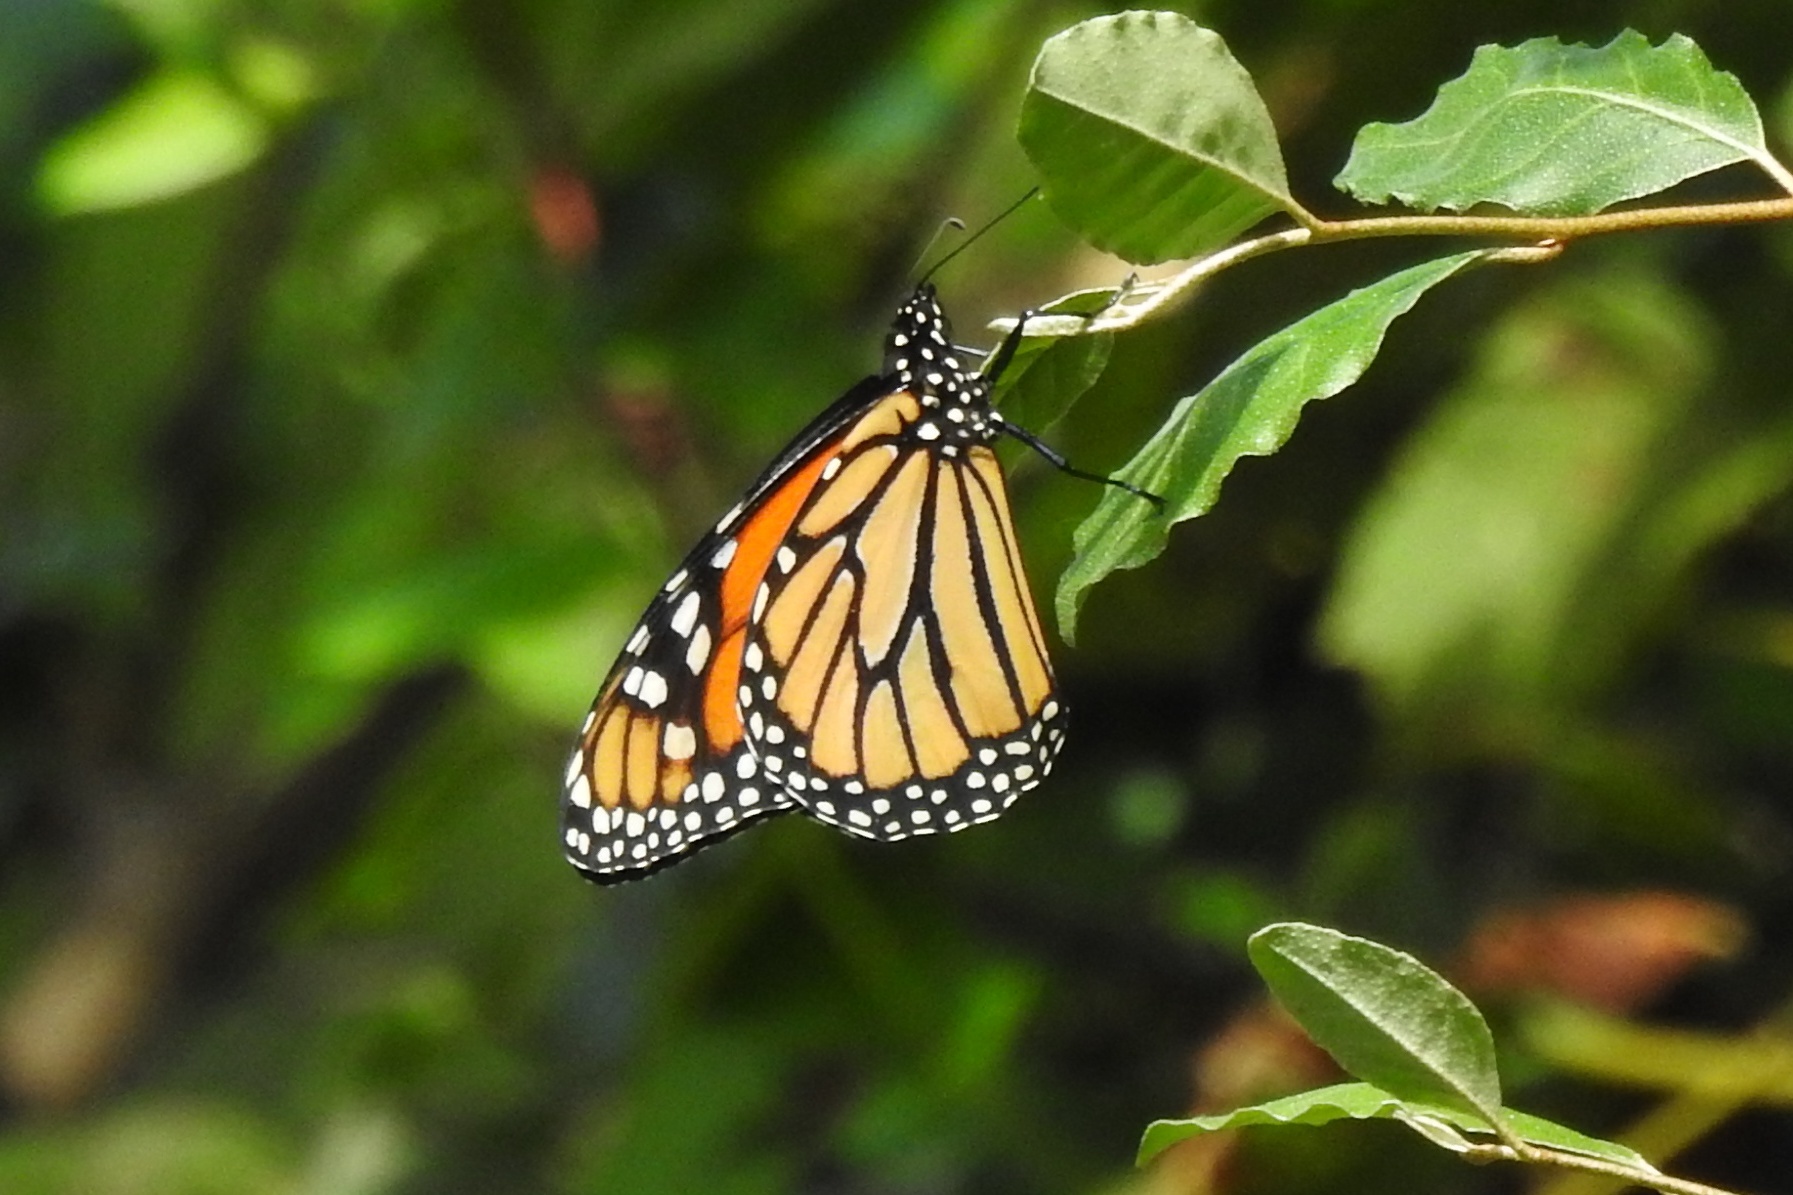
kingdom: Animalia
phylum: Arthropoda
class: Insecta
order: Lepidoptera
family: Nymphalidae
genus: Danaus
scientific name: Danaus plexippus
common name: Monarch
